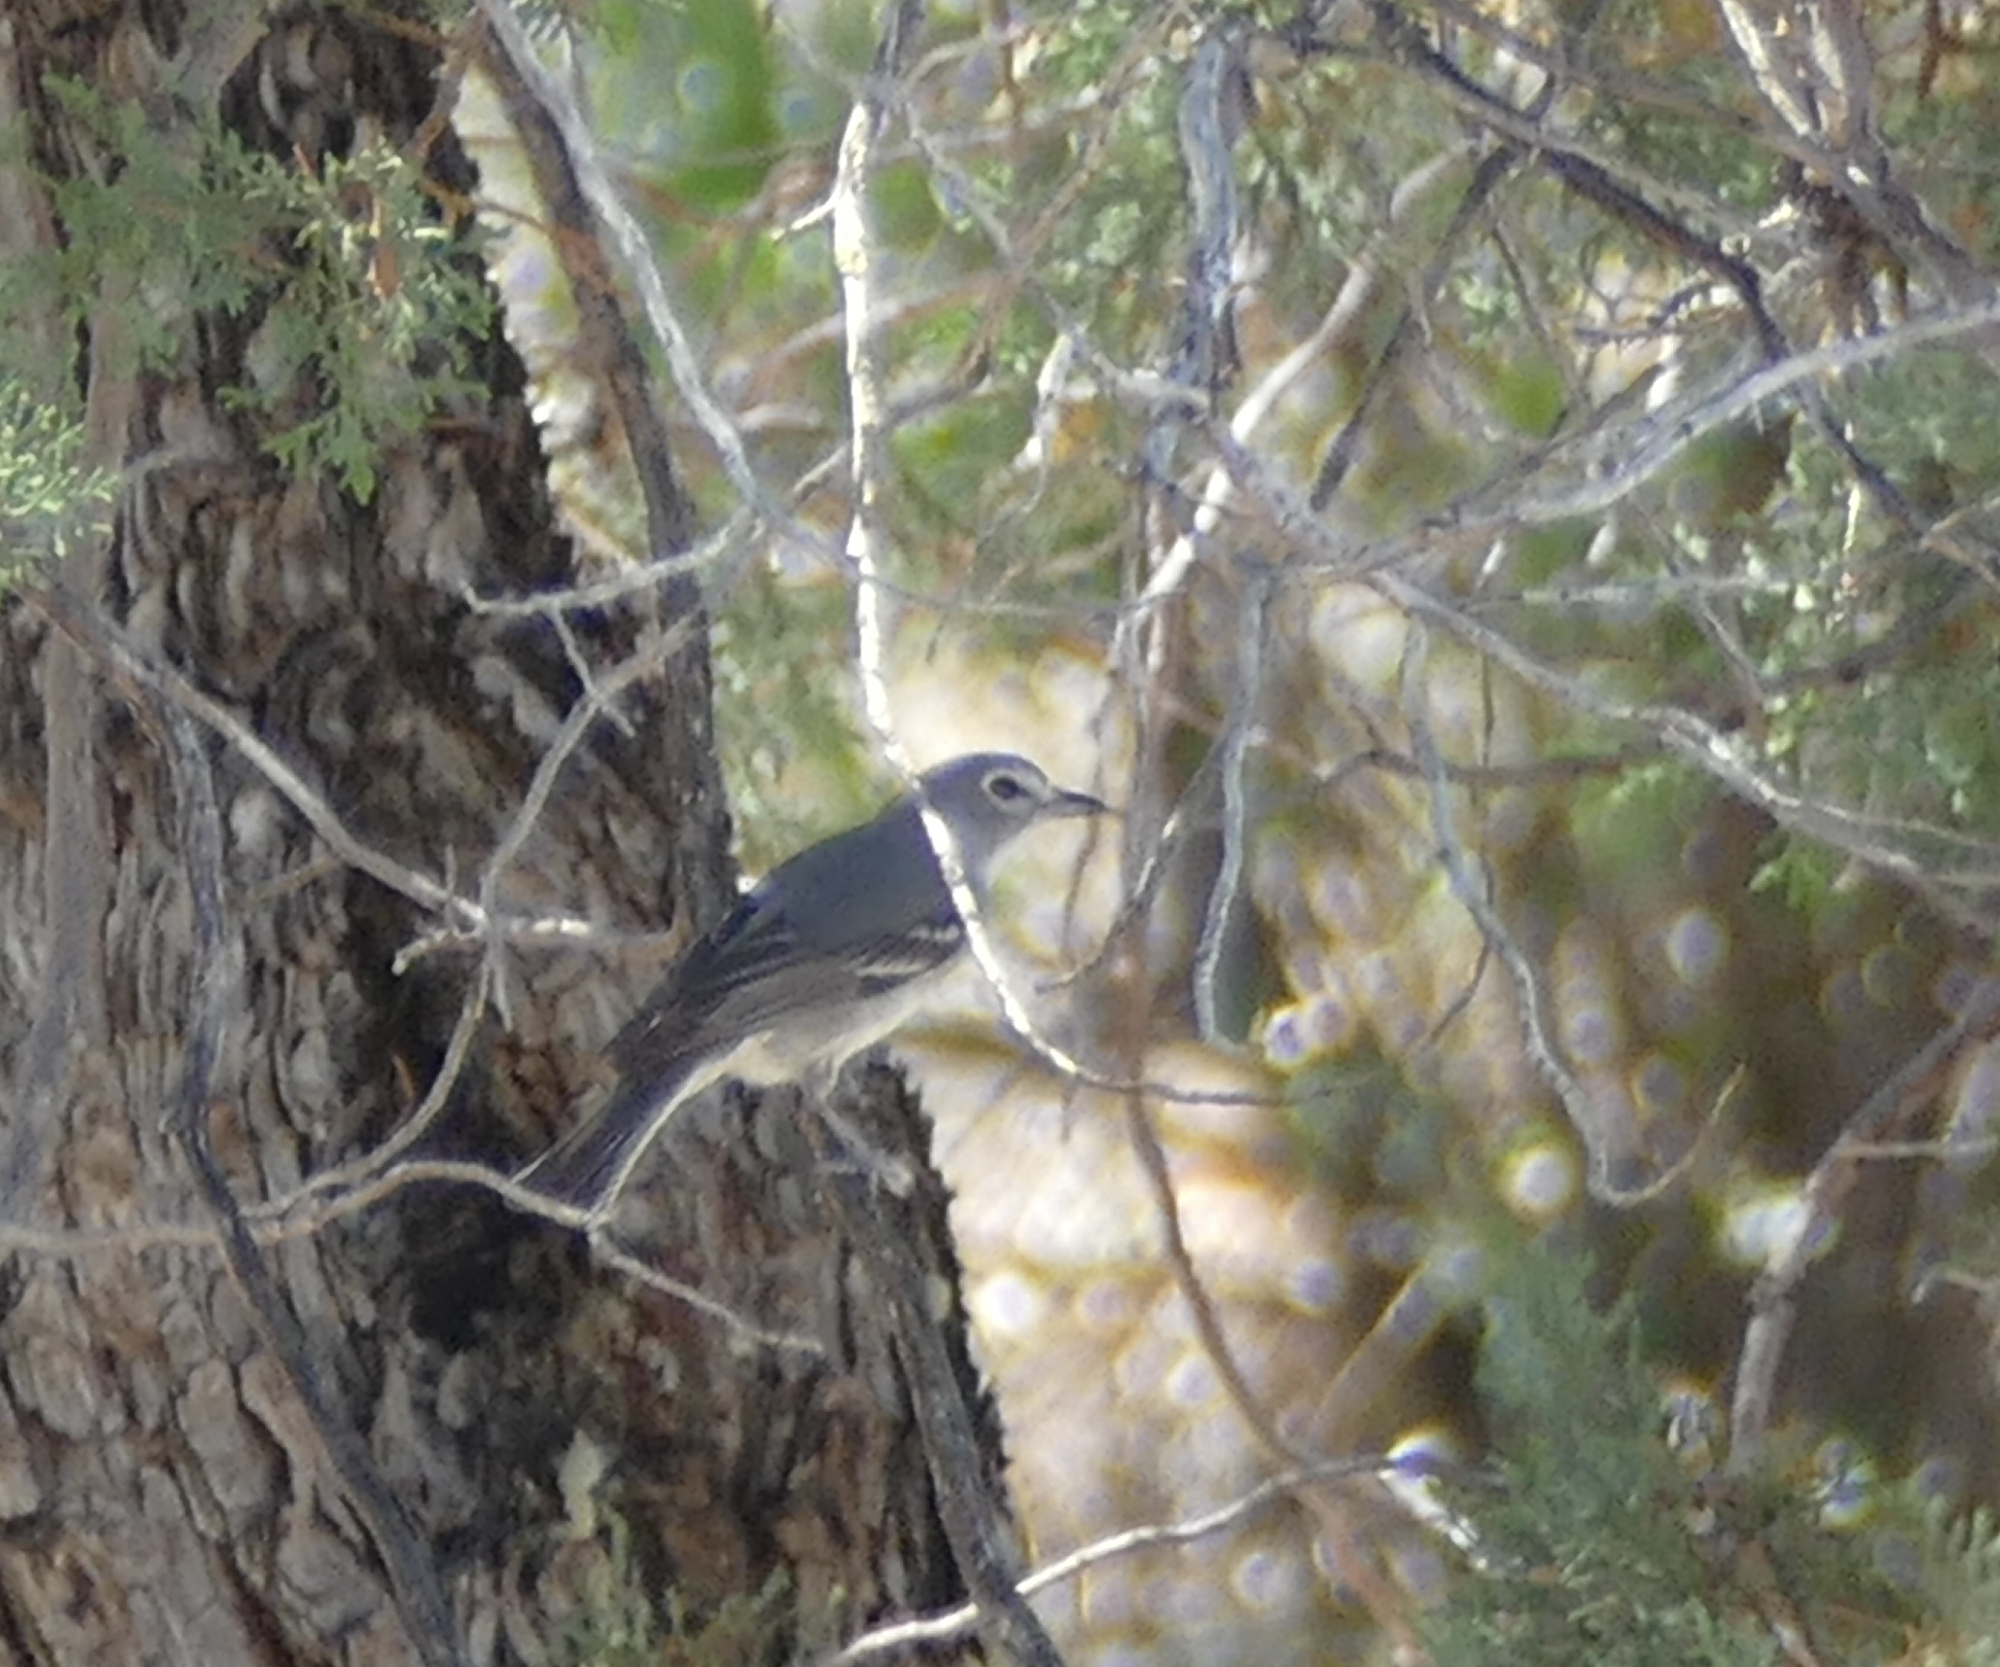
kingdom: Animalia
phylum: Chordata
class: Aves
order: Passeriformes
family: Vireonidae
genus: Vireo
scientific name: Vireo plumbeus
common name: Plumbeous vireo
